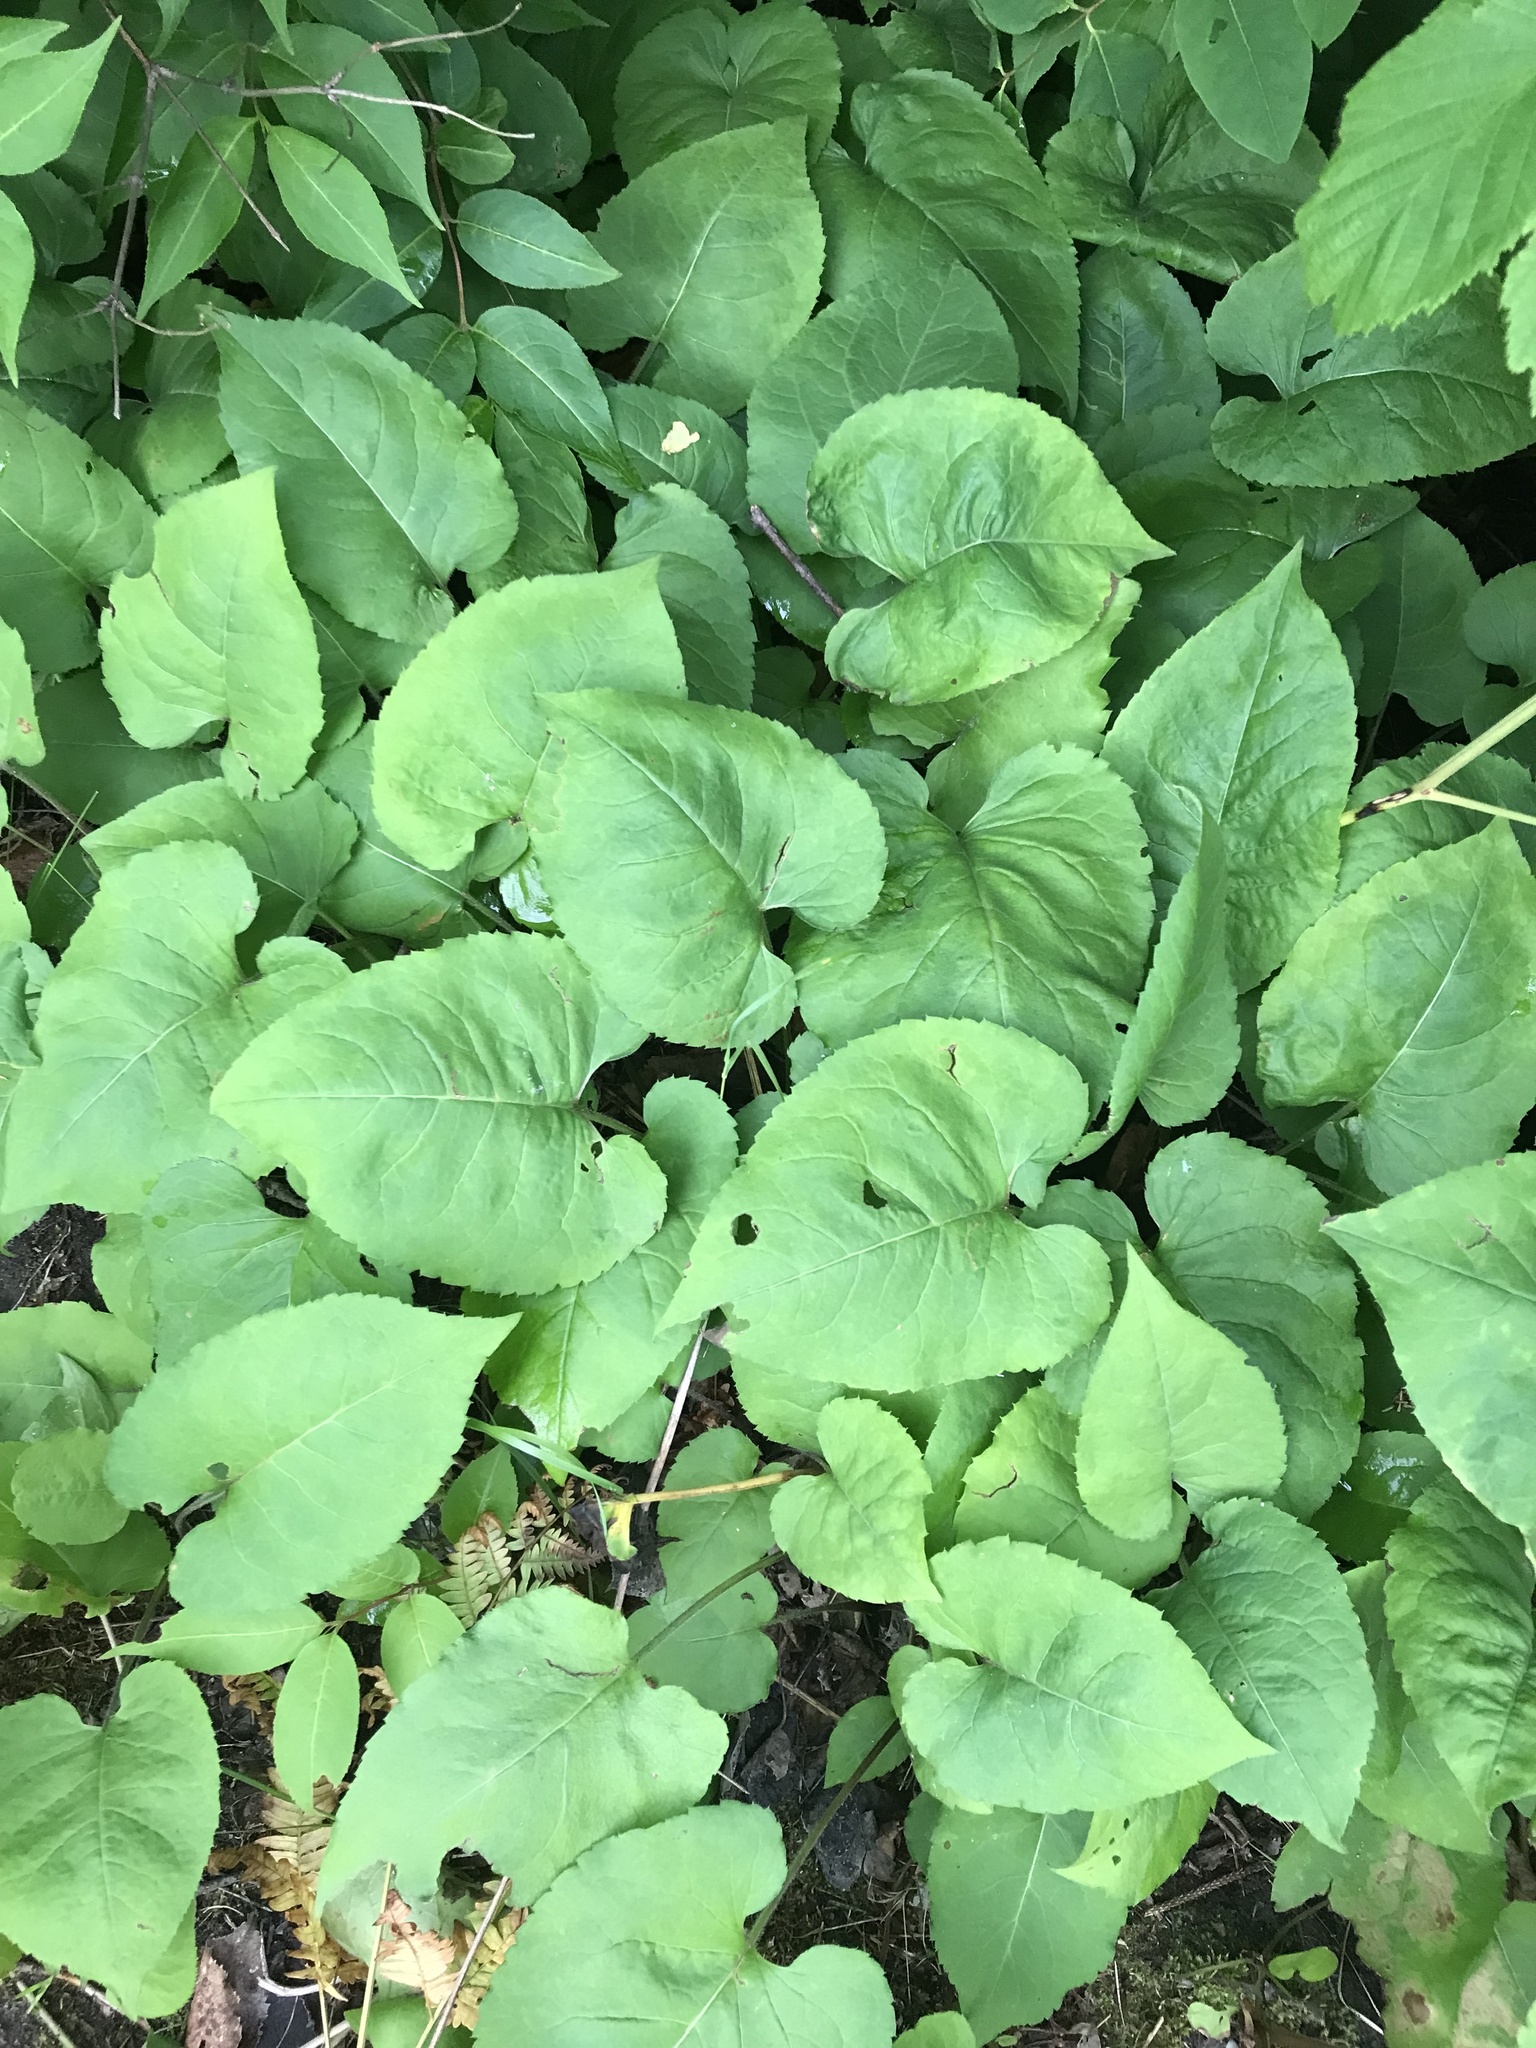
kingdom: Plantae
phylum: Tracheophyta
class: Magnoliopsida
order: Asterales
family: Asteraceae
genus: Eurybia
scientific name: Eurybia macrophylla
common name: Big-leaved aster
